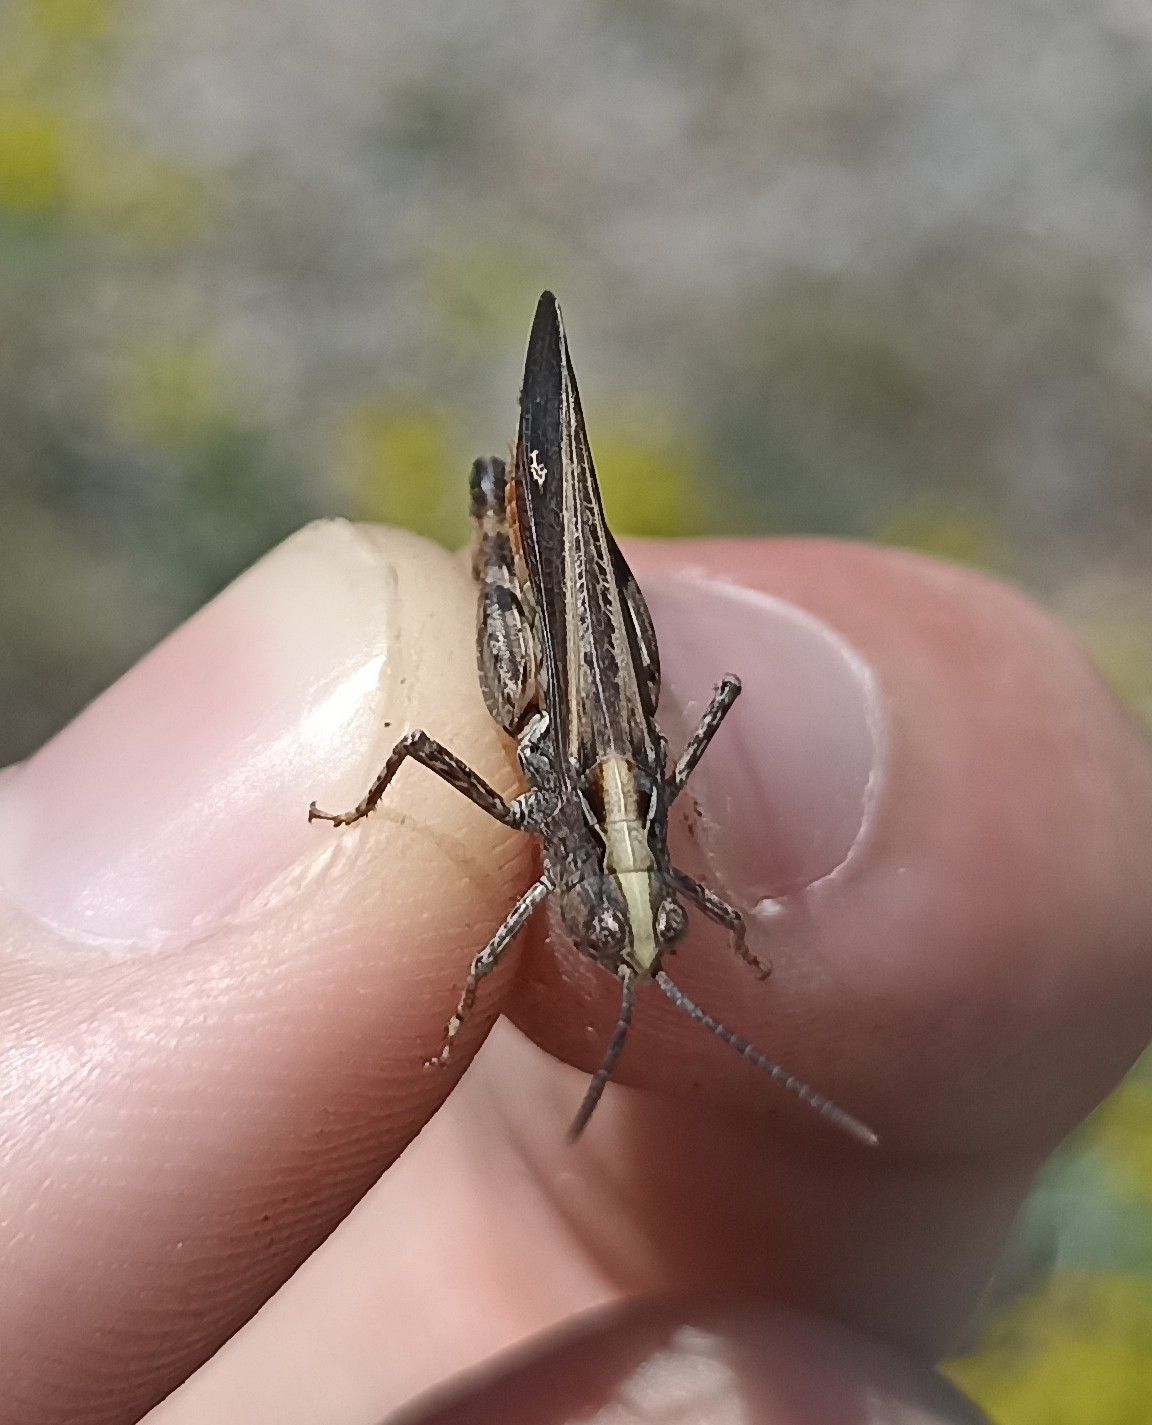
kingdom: Animalia
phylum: Arthropoda
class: Insecta
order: Orthoptera
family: Acrididae
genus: Omocestus
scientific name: Omocestus rufipes
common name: Woodland grasshopper
